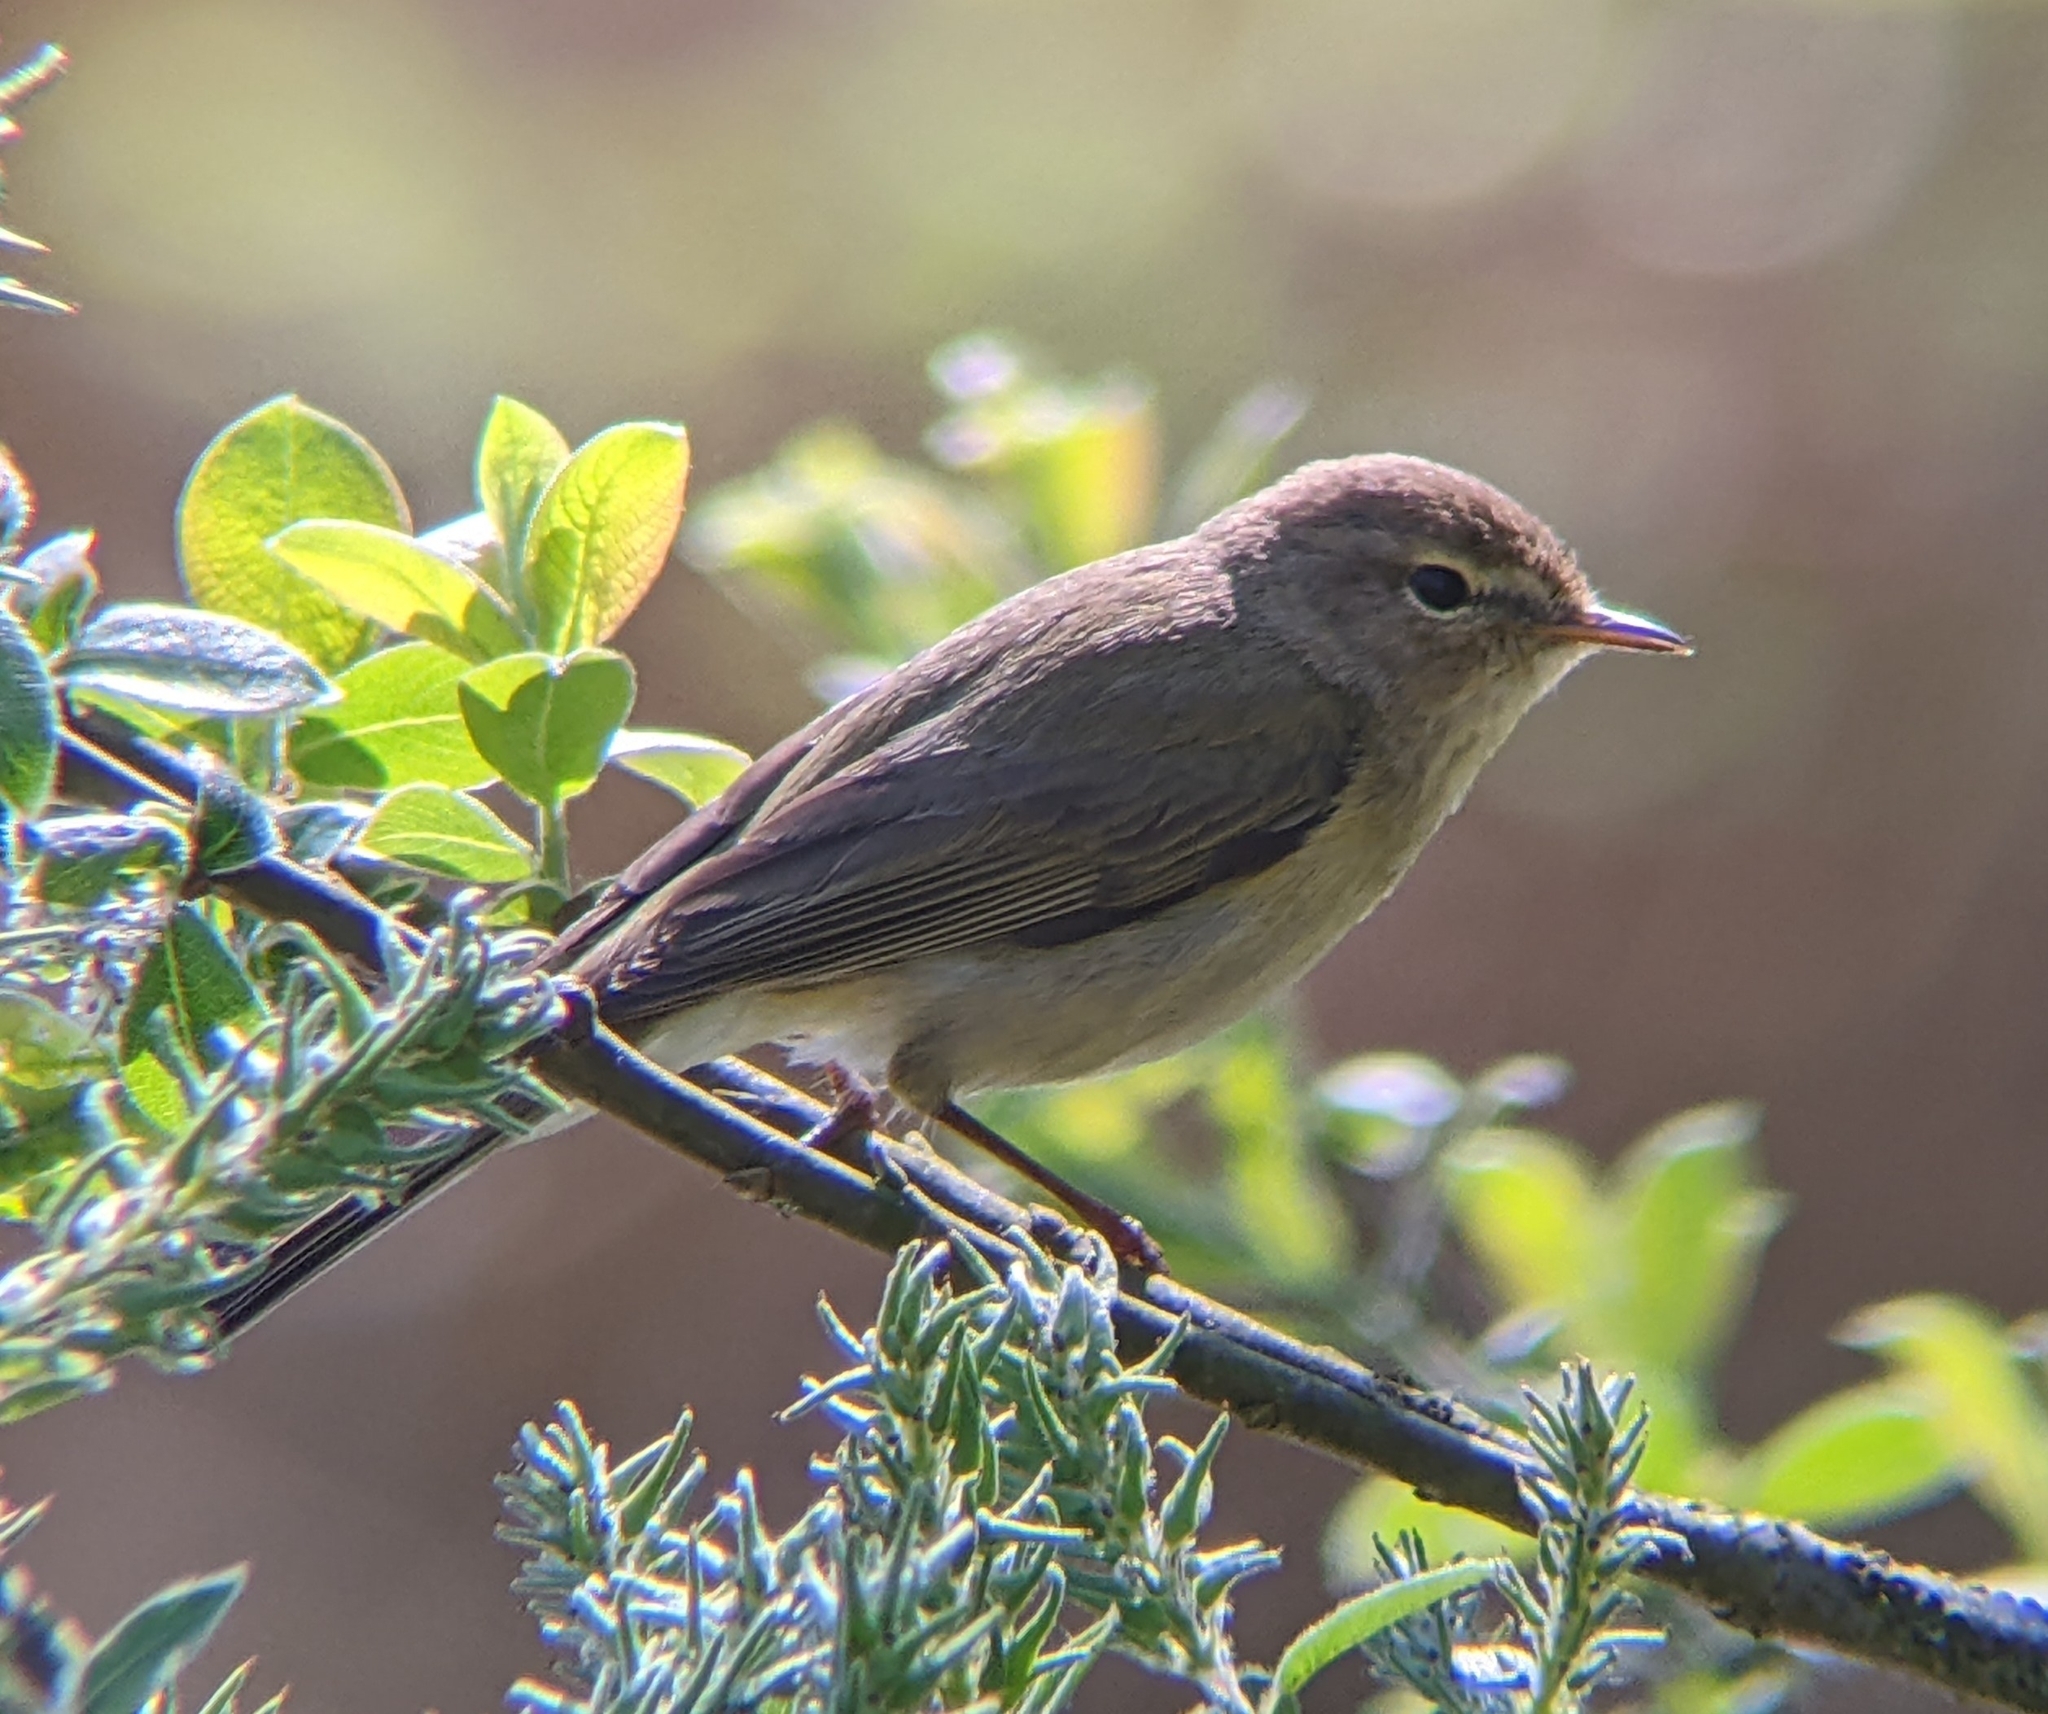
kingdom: Animalia
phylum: Chordata
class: Aves
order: Passeriformes
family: Phylloscopidae
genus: Phylloscopus
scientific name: Phylloscopus collybita
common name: Common chiffchaff
